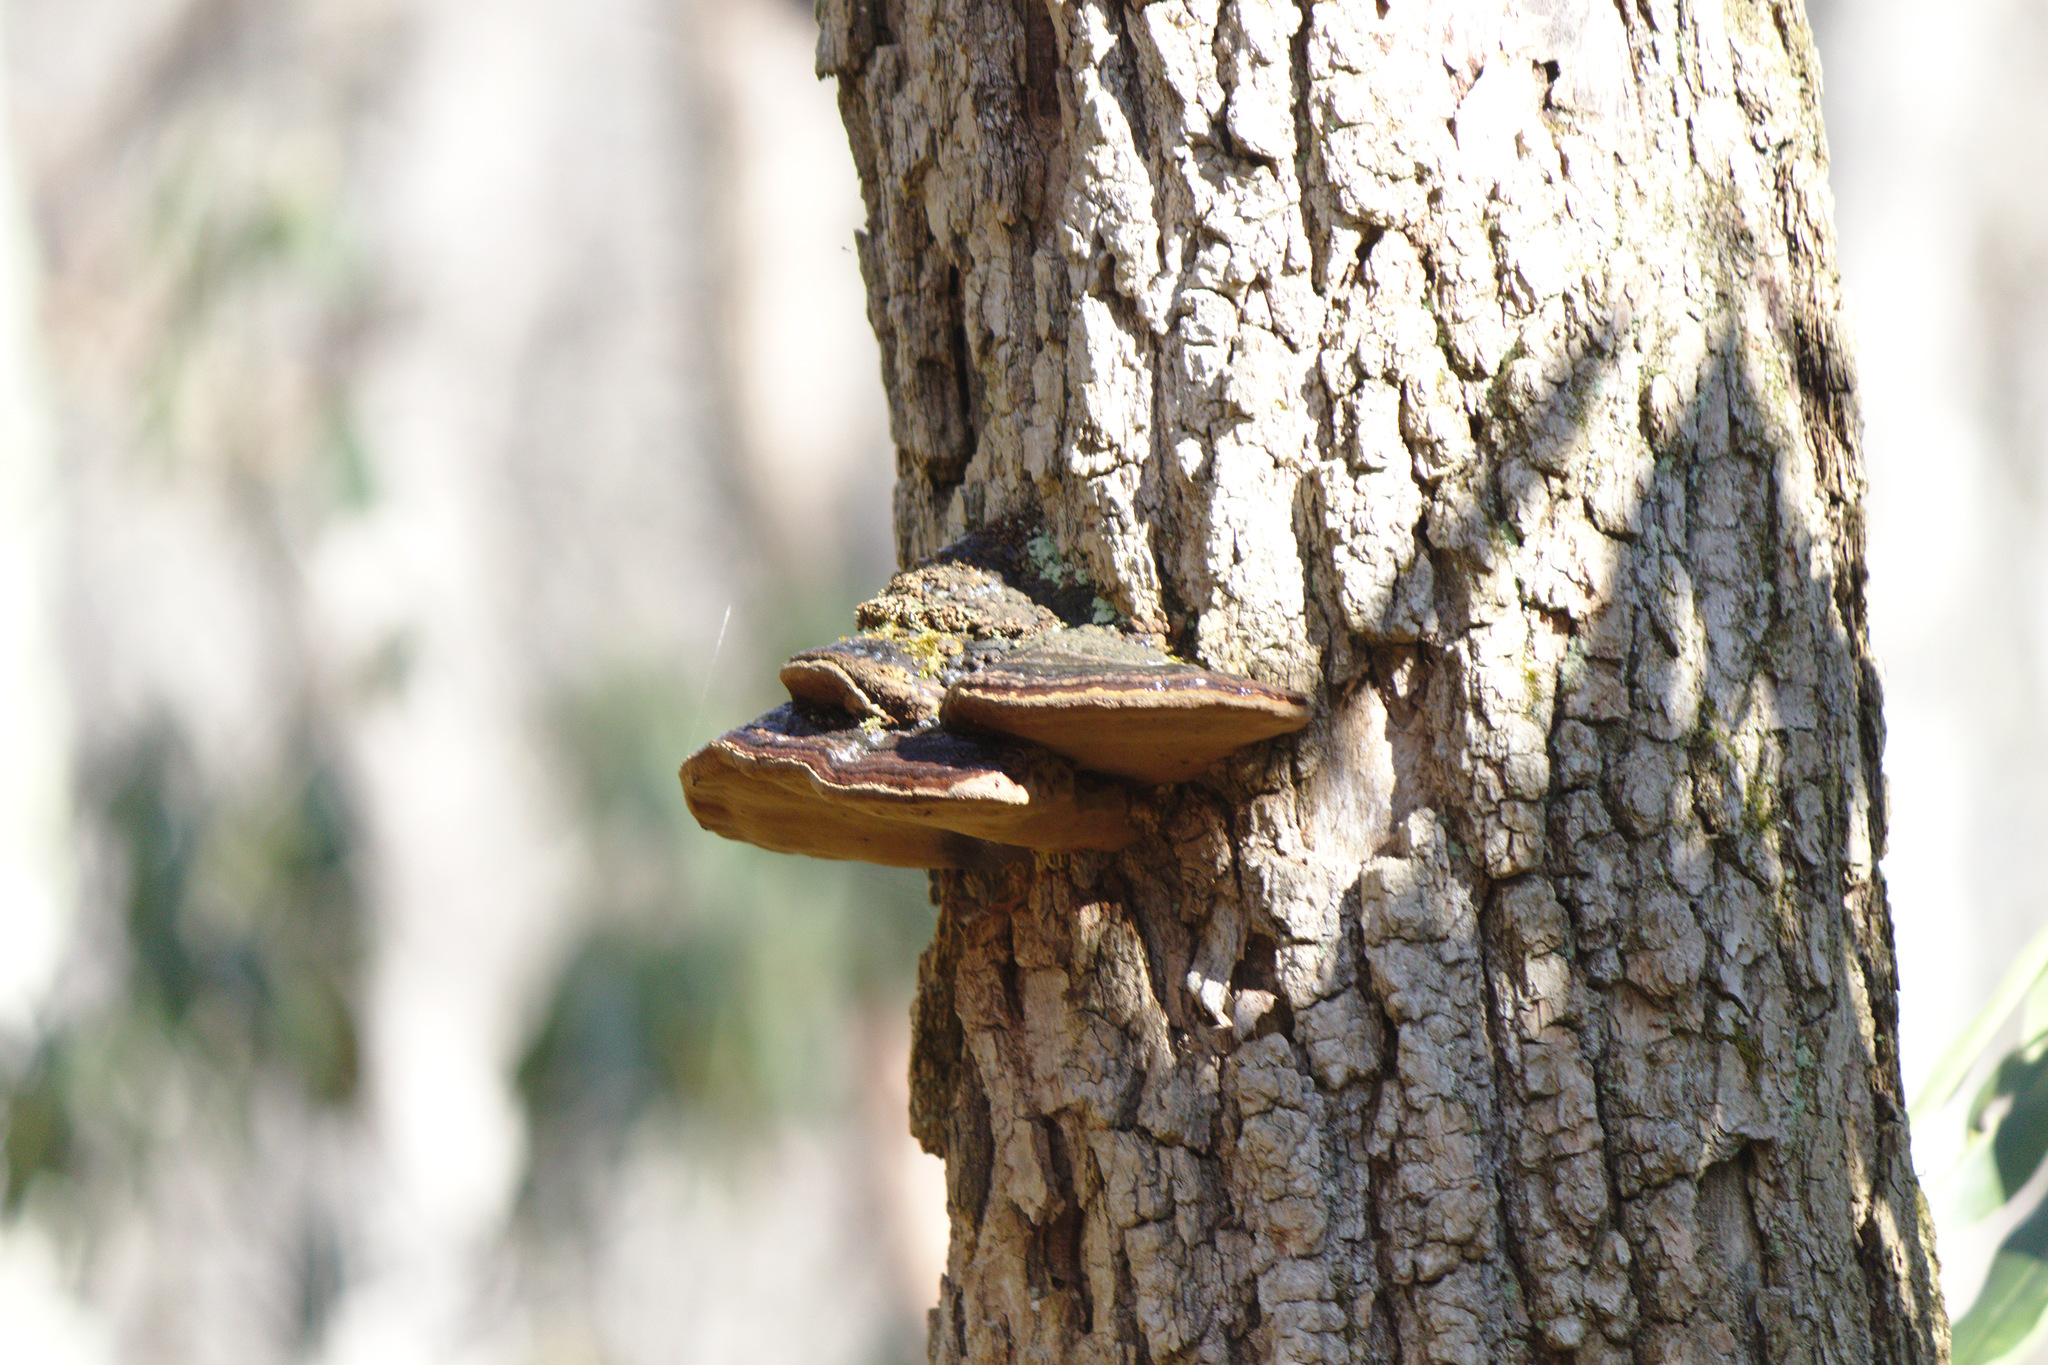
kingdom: Fungi
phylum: Basidiomycota
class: Agaricomycetes
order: Hymenochaetales
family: Hymenochaetaceae
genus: Phellinus
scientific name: Phellinus robiniae
